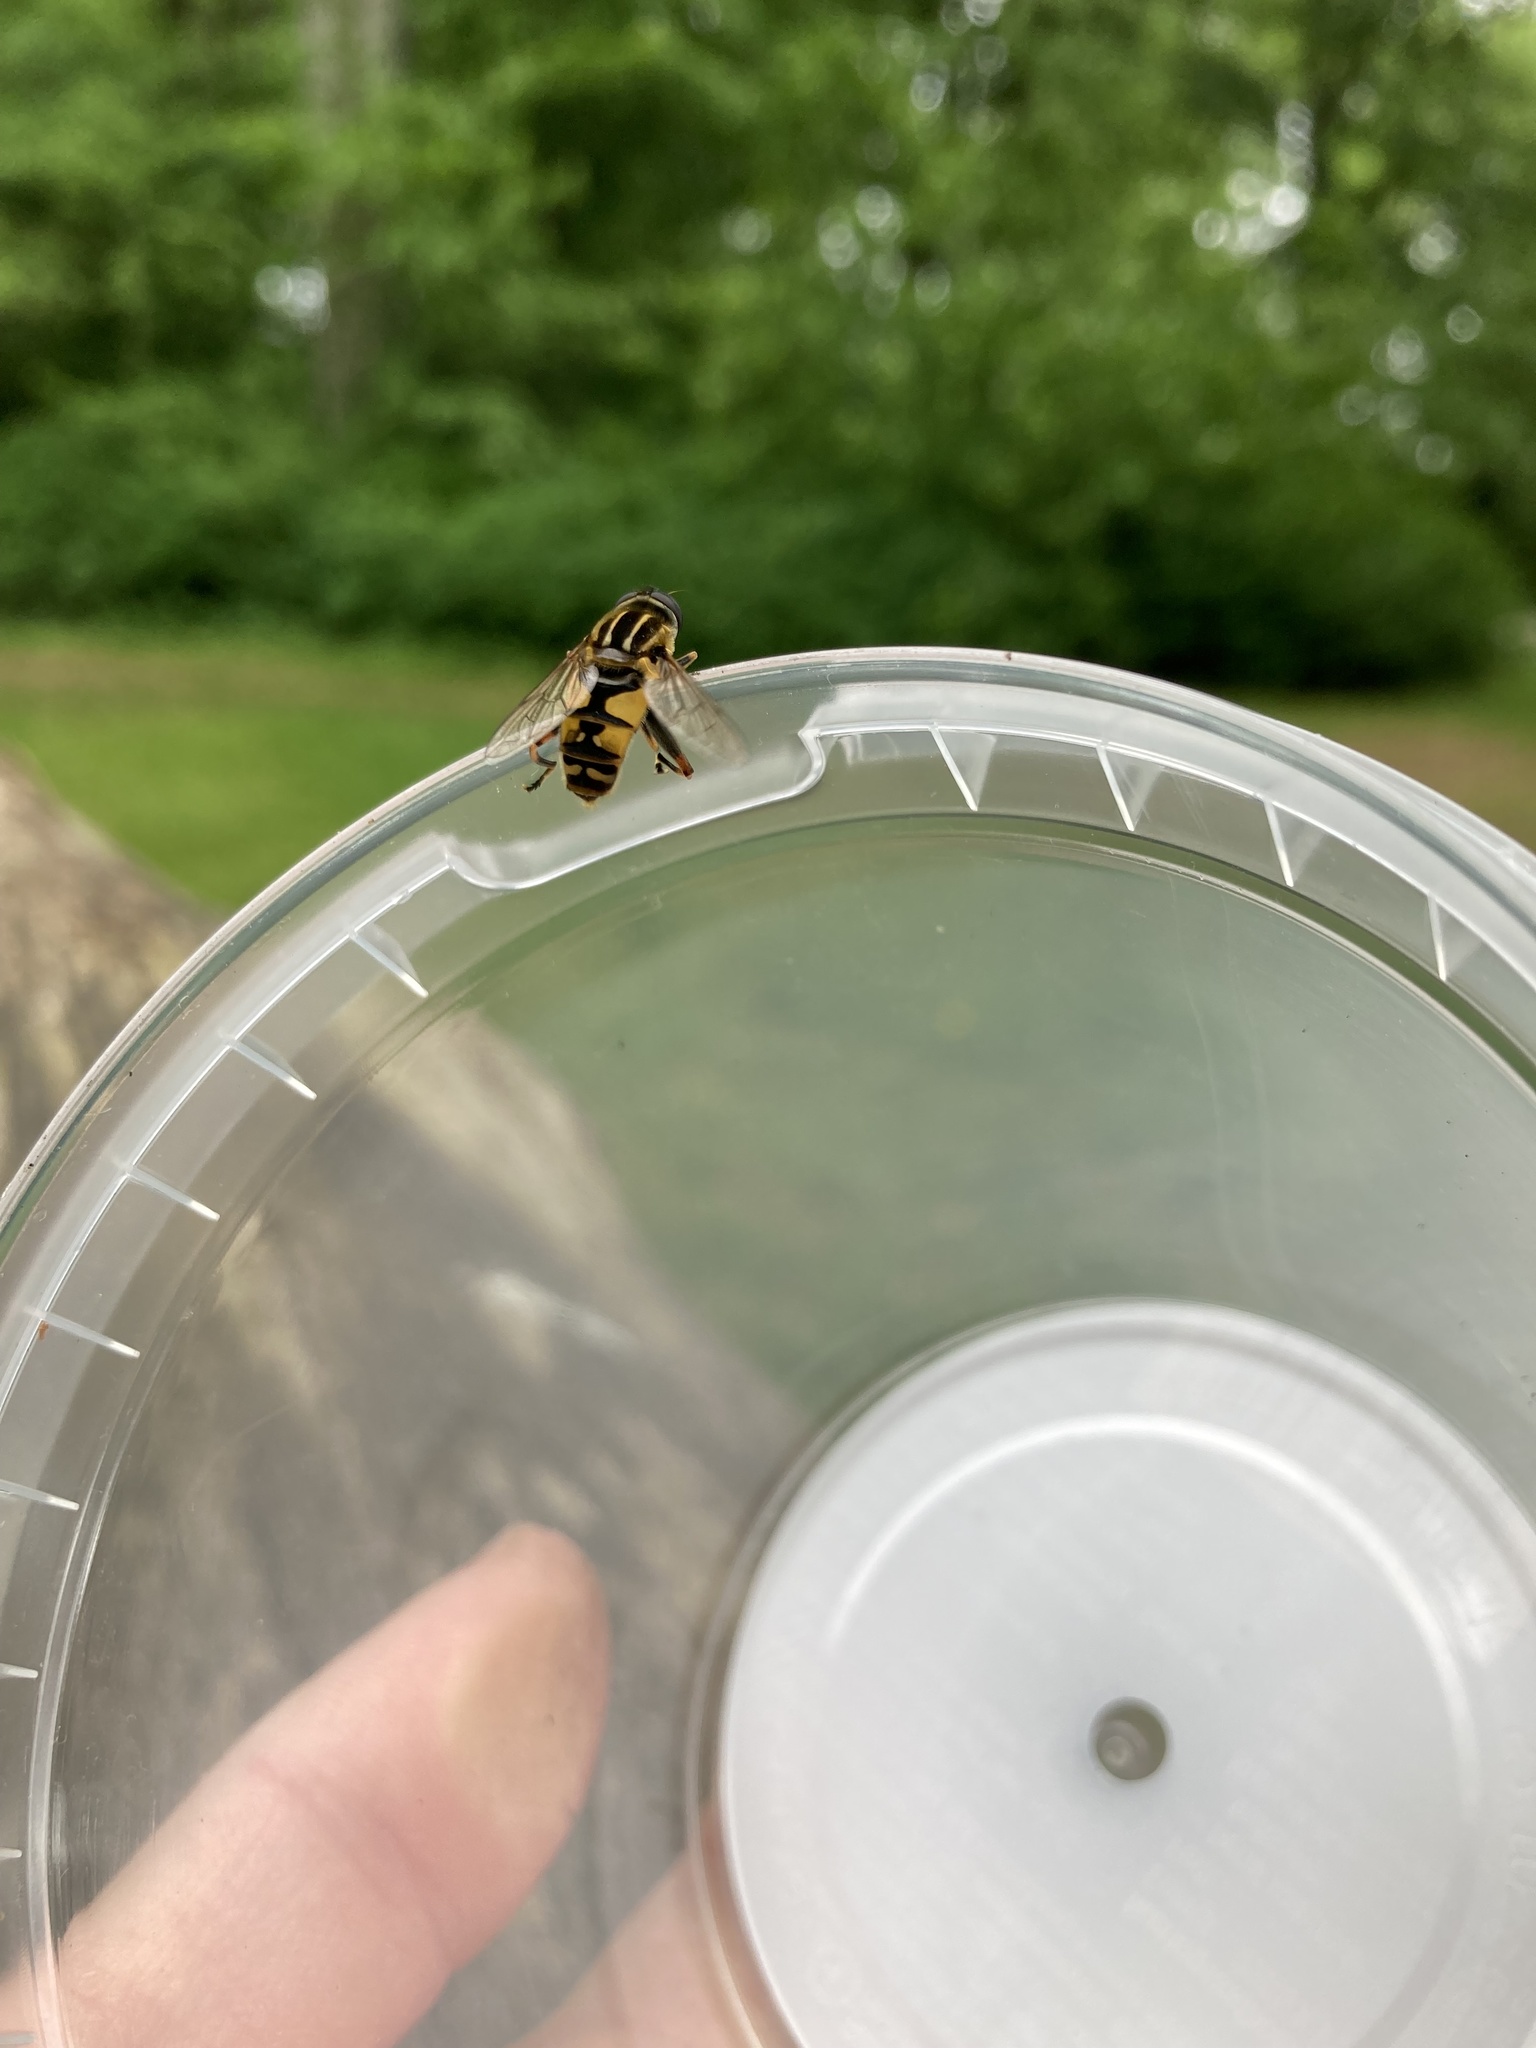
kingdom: Animalia
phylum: Arthropoda
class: Insecta
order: Diptera
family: Syrphidae
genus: Helophilus
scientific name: Helophilus pendulus
